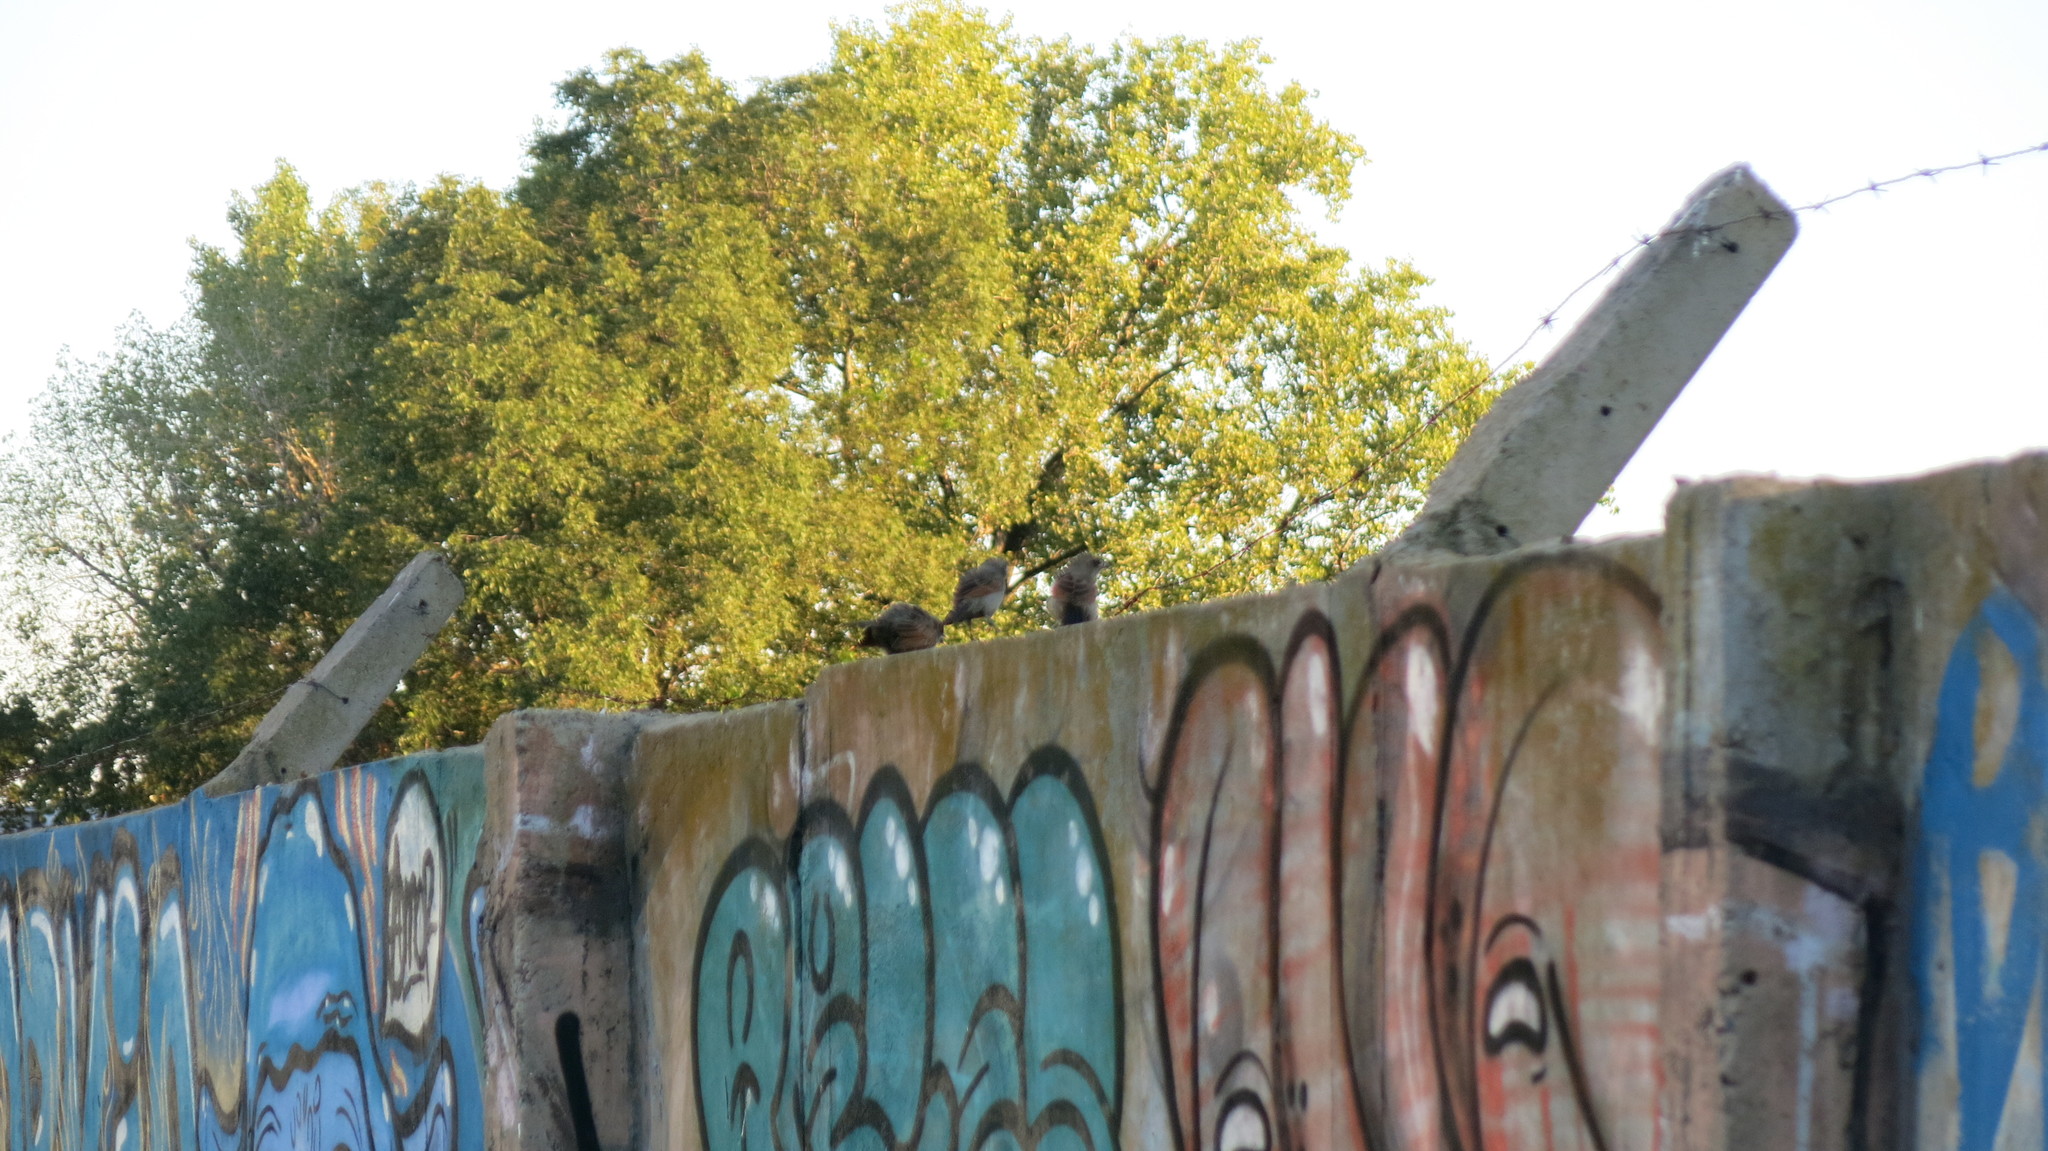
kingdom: Animalia
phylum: Chordata
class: Aves
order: Passeriformes
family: Icteridae
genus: Agelaioides
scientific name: Agelaioides badius
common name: Baywing
